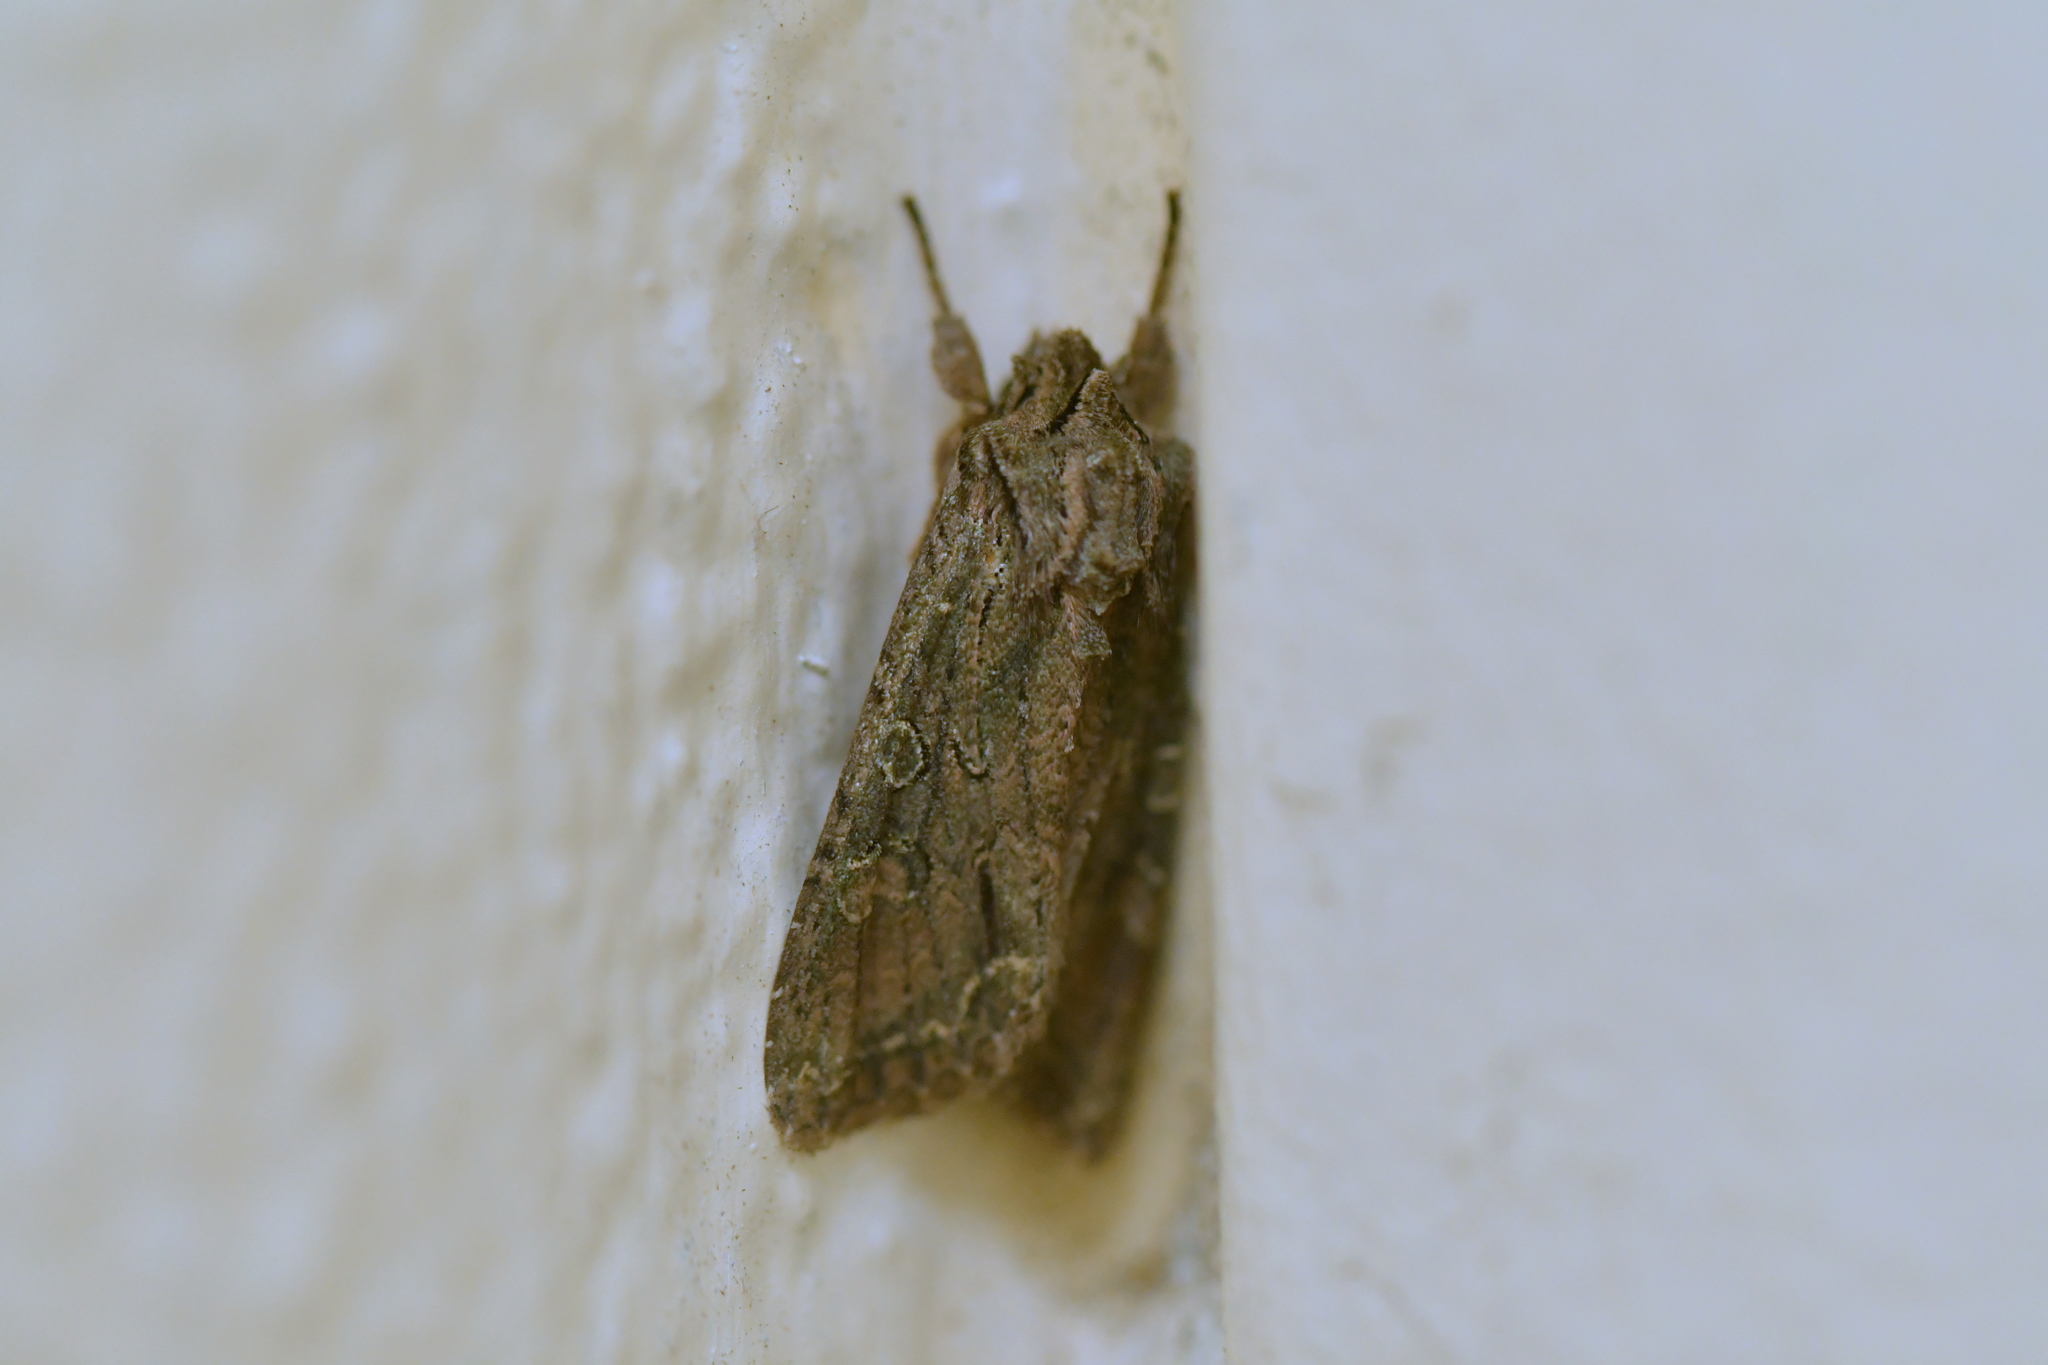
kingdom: Animalia
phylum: Arthropoda
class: Insecta
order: Lepidoptera
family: Noctuidae
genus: Ichneutica
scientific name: Ichneutica mutans
